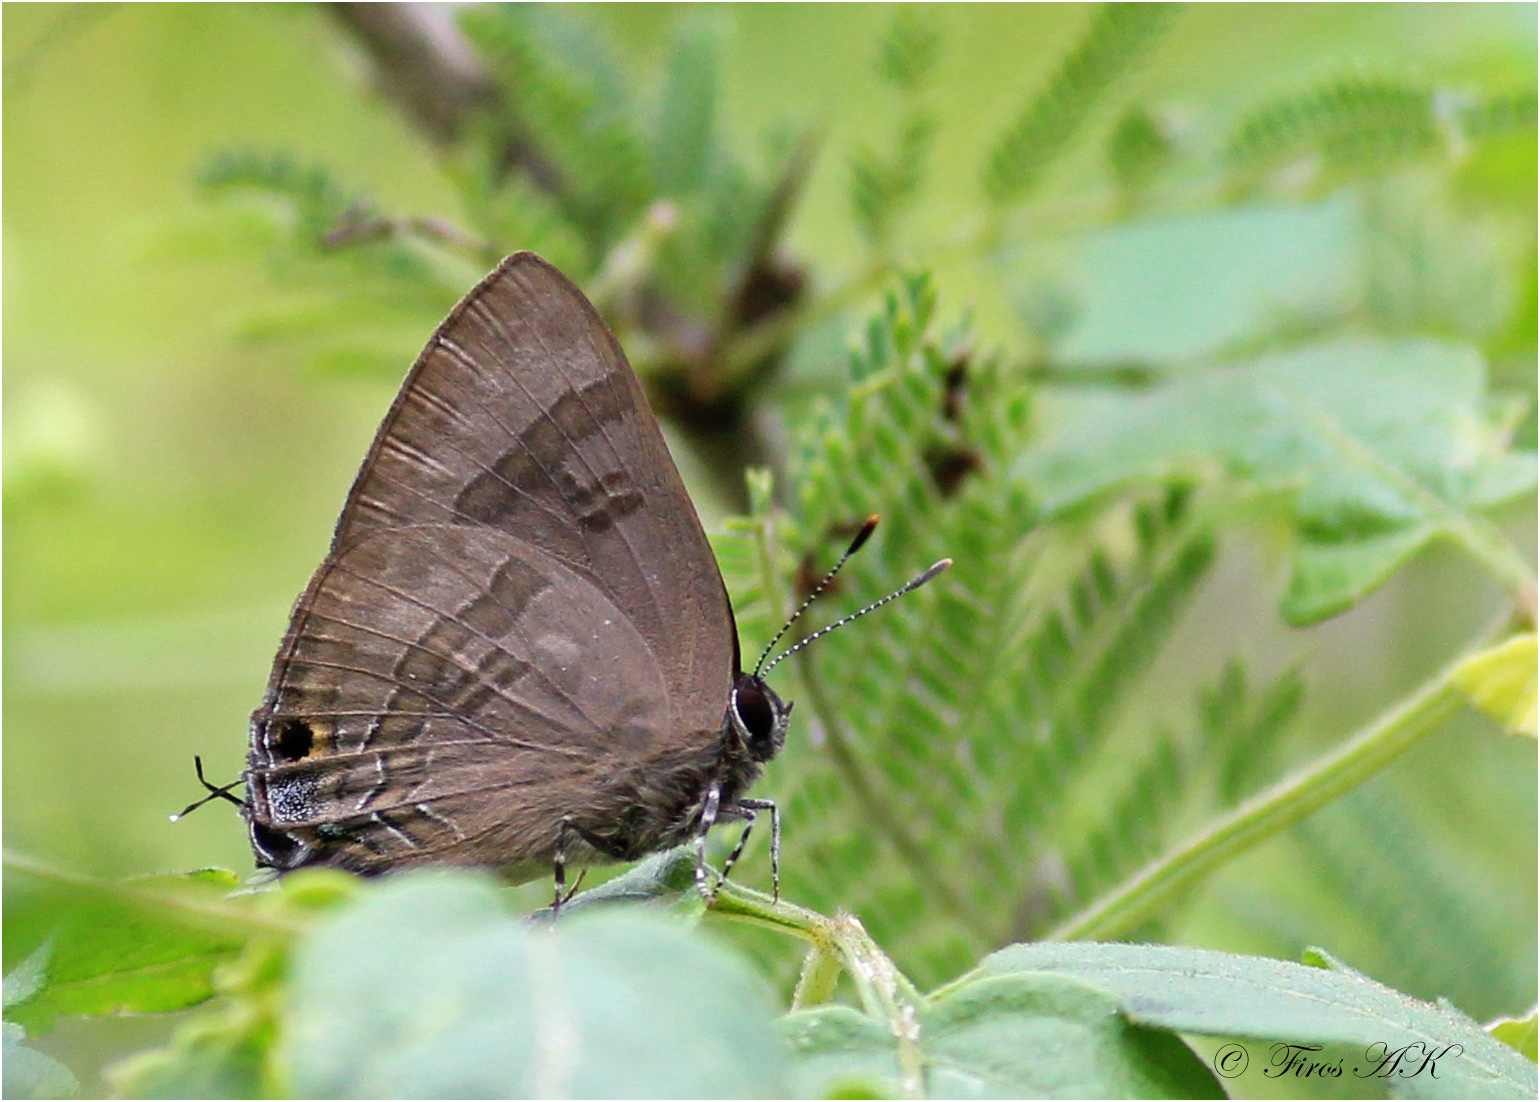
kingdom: Animalia
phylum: Arthropoda
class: Insecta
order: Lepidoptera
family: Lycaenidae
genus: Rapala
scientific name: Rapala varuna
